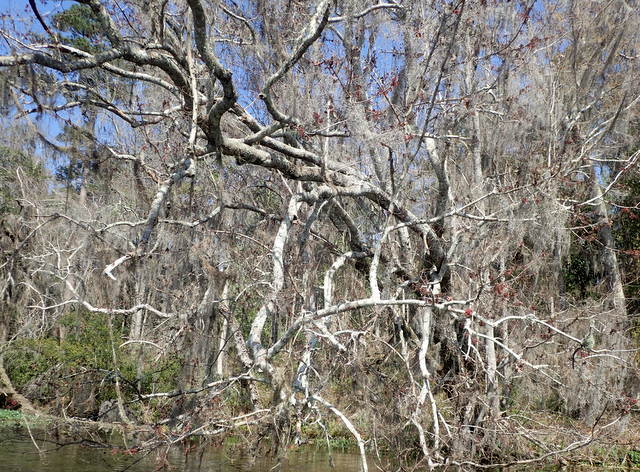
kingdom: Plantae
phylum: Tracheophyta
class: Magnoliopsida
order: Sapindales
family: Sapindaceae
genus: Acer
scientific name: Acer rubrum
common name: Red maple
